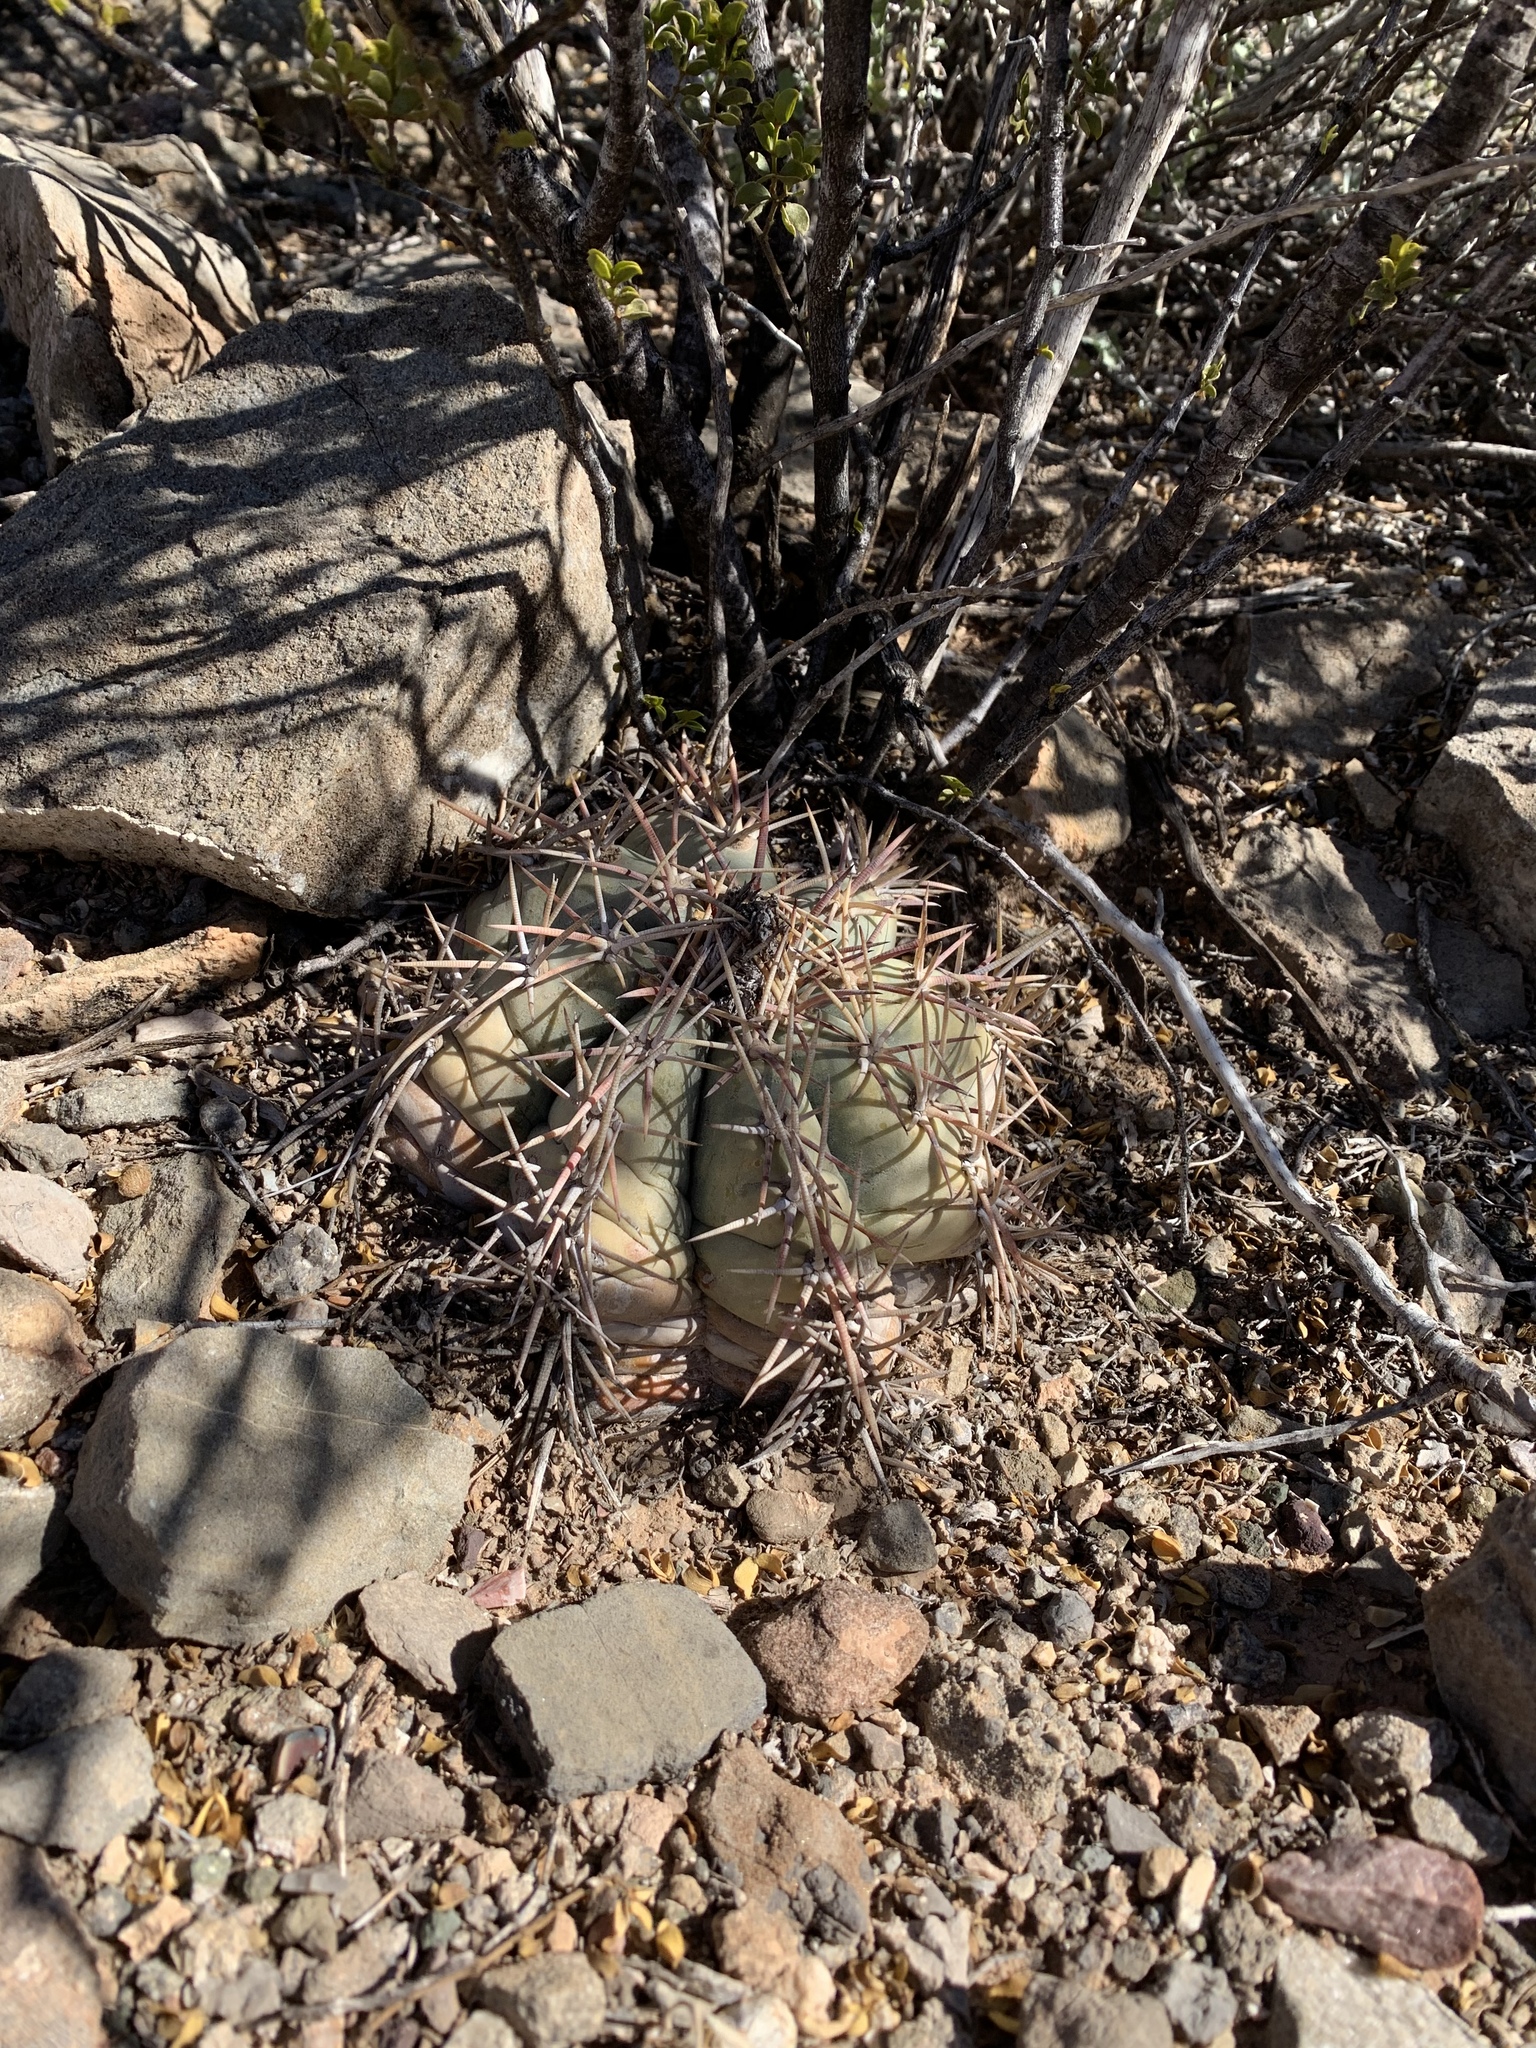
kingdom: Plantae
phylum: Tracheophyta
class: Magnoliopsida
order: Caryophyllales
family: Cactaceae
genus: Echinocactus
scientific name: Echinocactus horizonthalonius
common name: Devilshead
